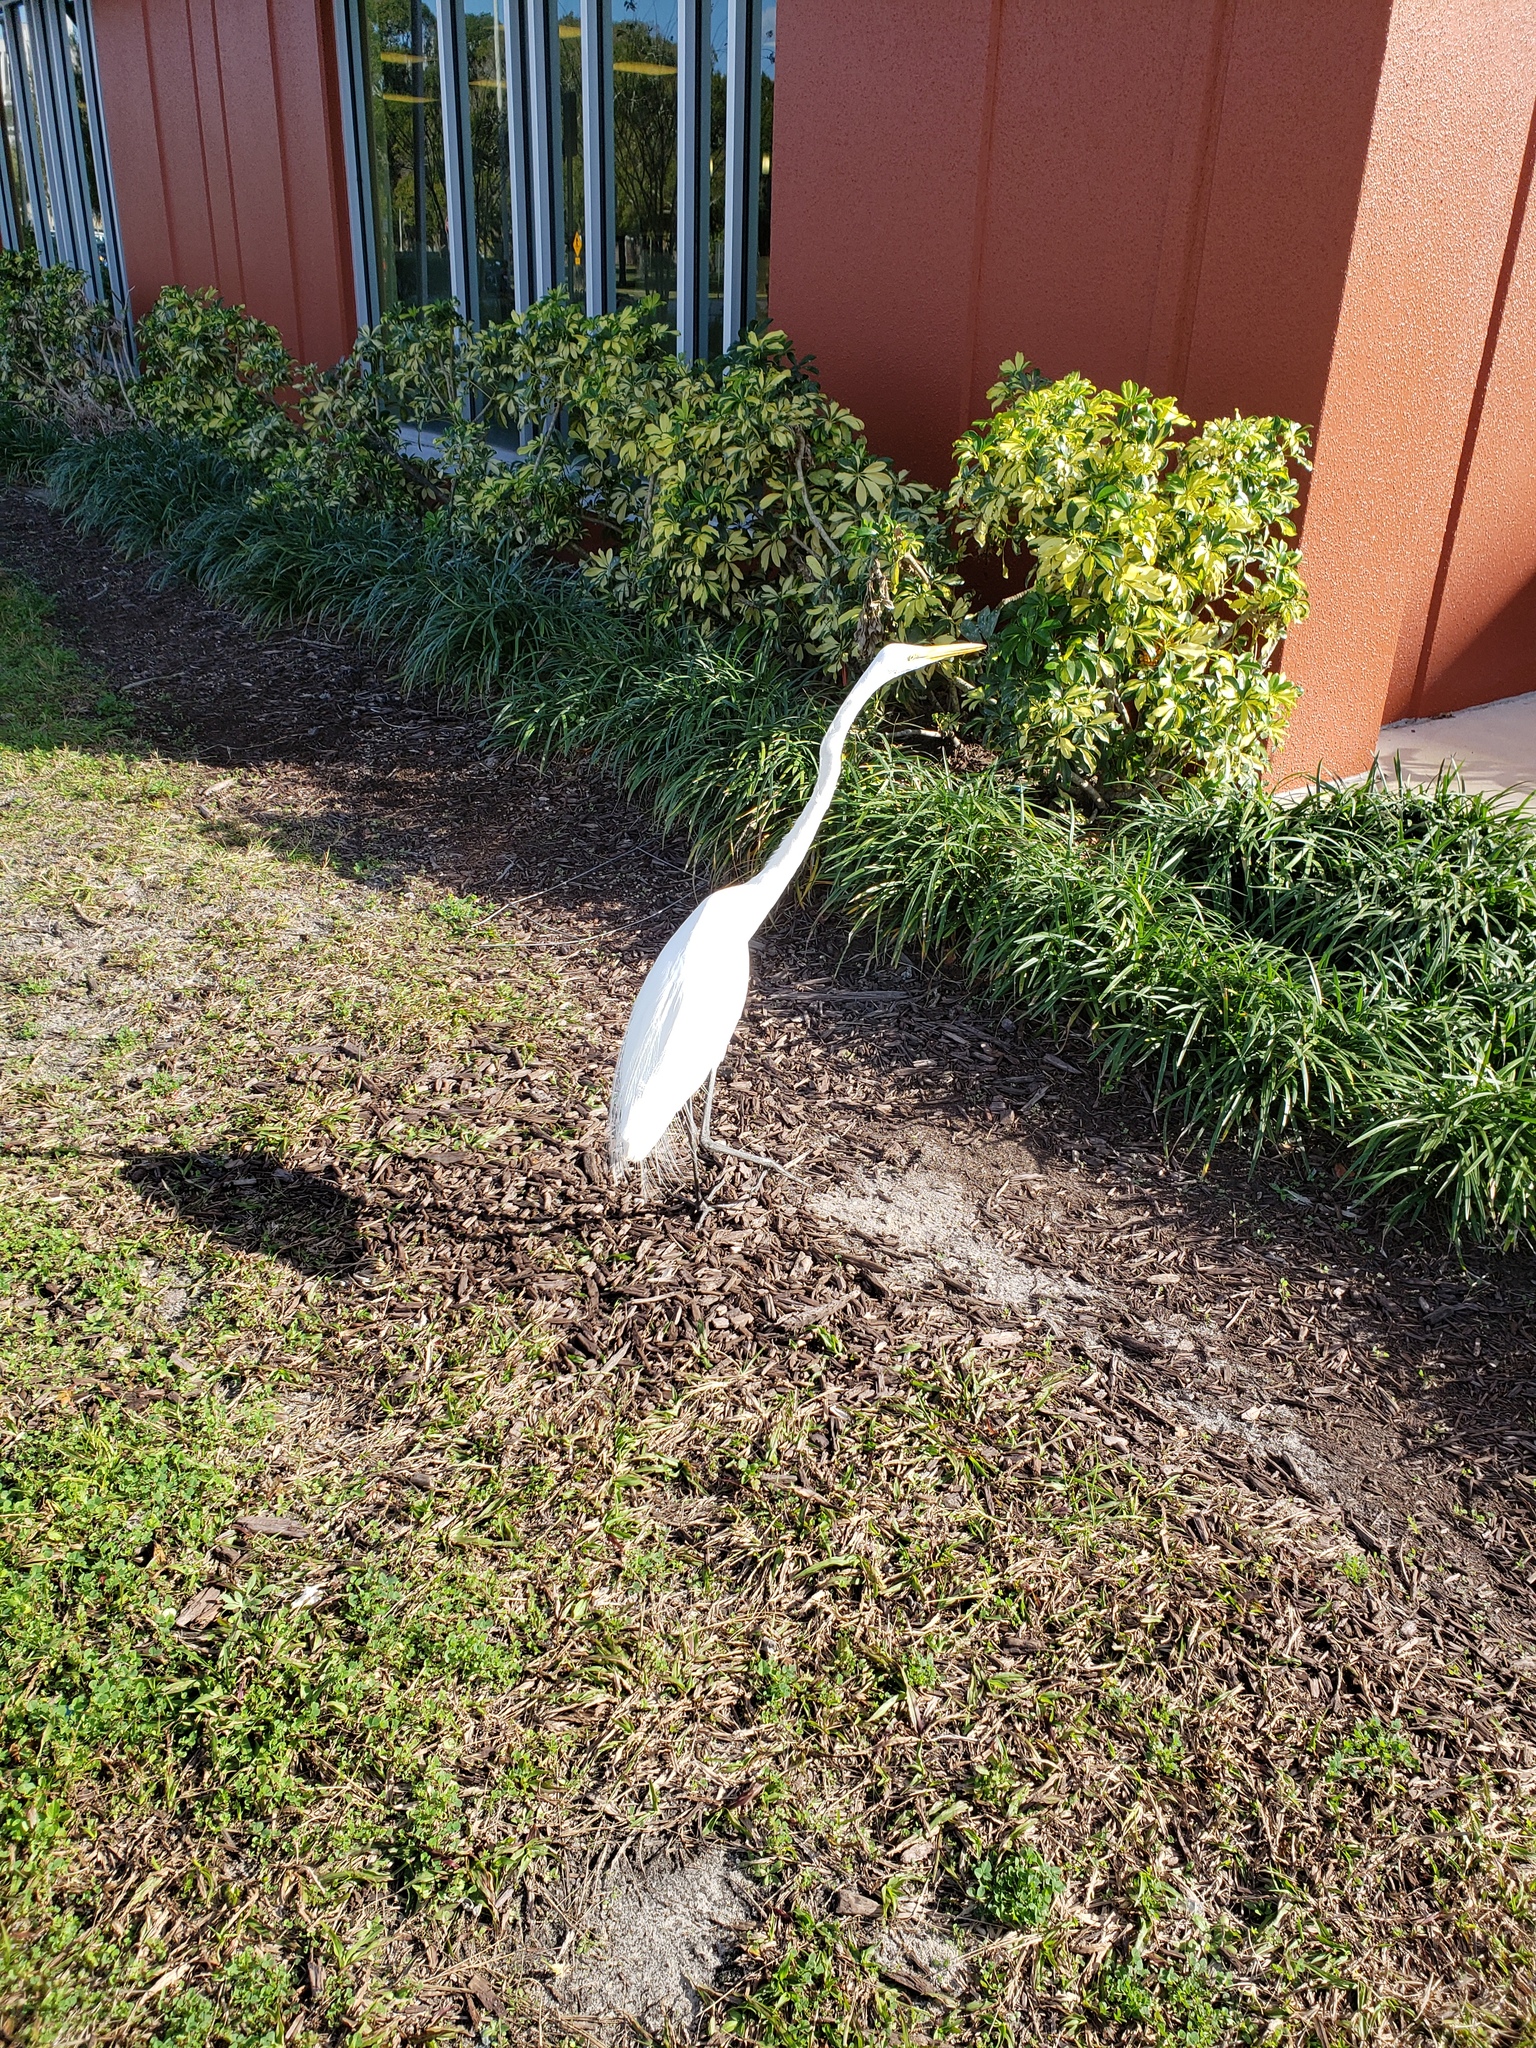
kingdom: Animalia
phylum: Chordata
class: Aves
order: Pelecaniformes
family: Ardeidae
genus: Ardea
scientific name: Ardea alba
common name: Great egret
